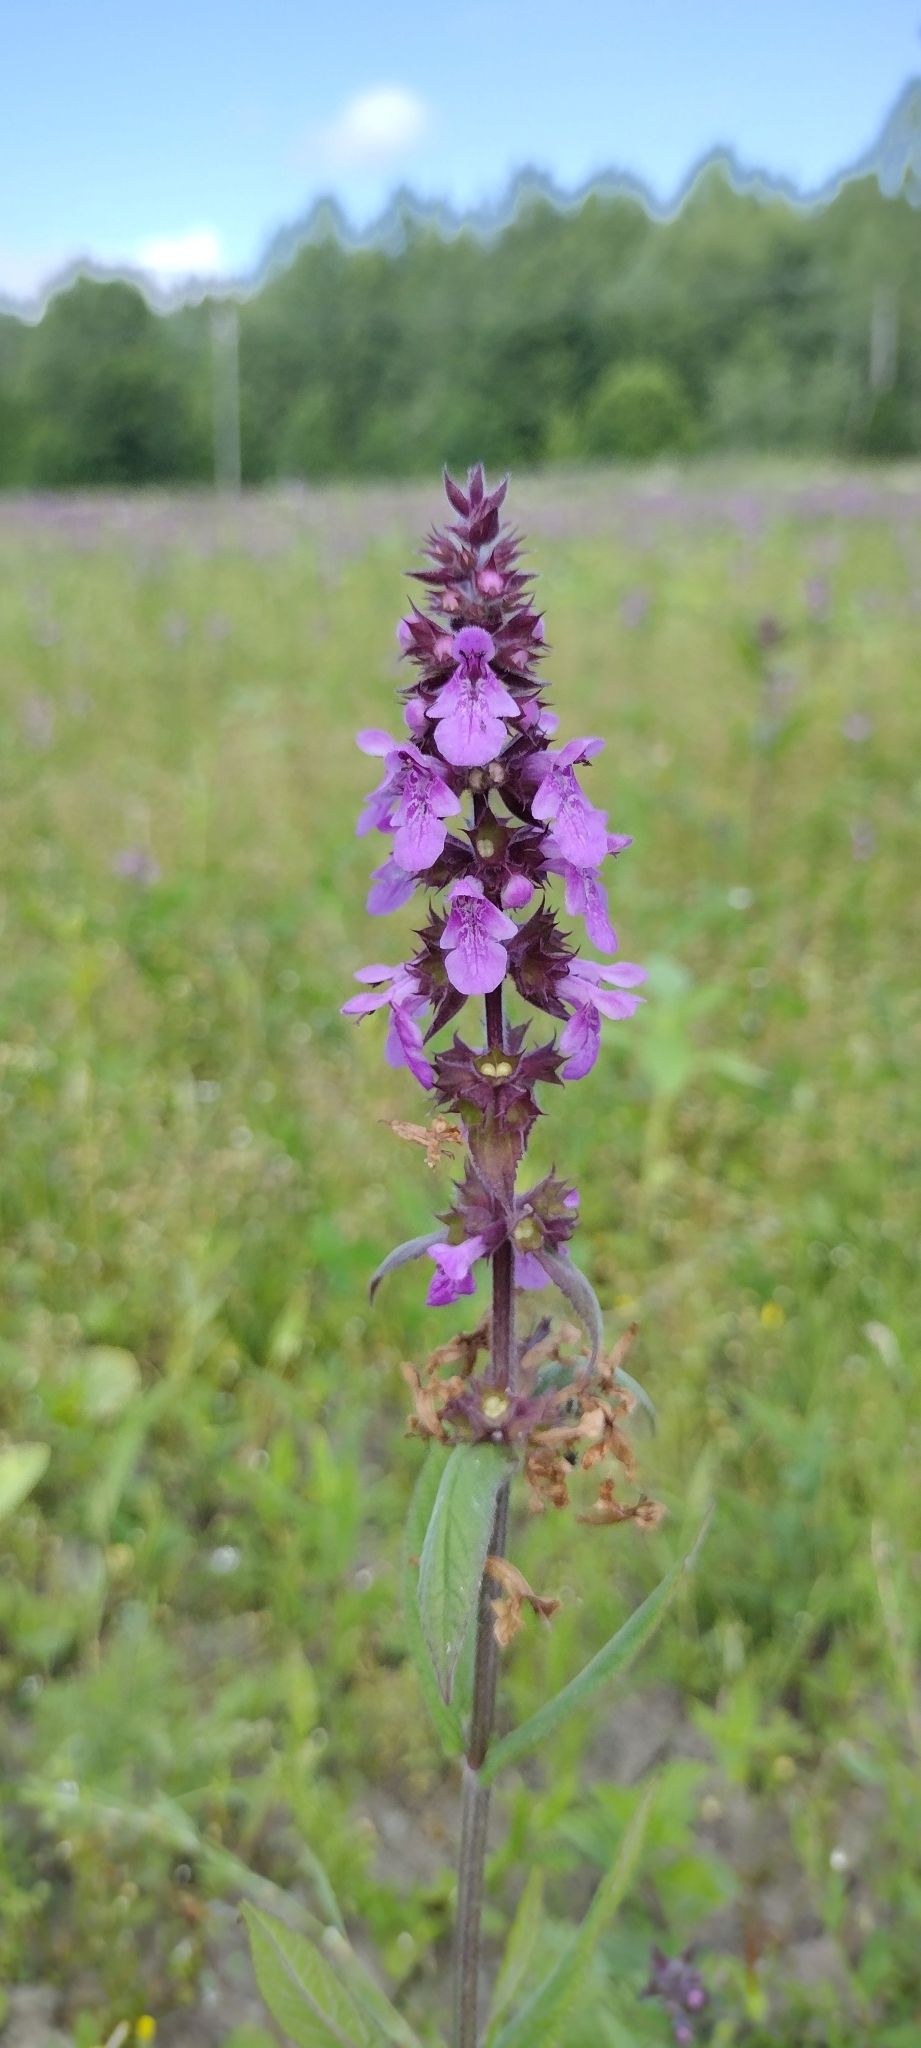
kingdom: Plantae
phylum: Tracheophyta
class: Magnoliopsida
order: Lamiales
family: Lamiaceae
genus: Stachys
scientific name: Stachys palustris
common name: Marsh woundwort
